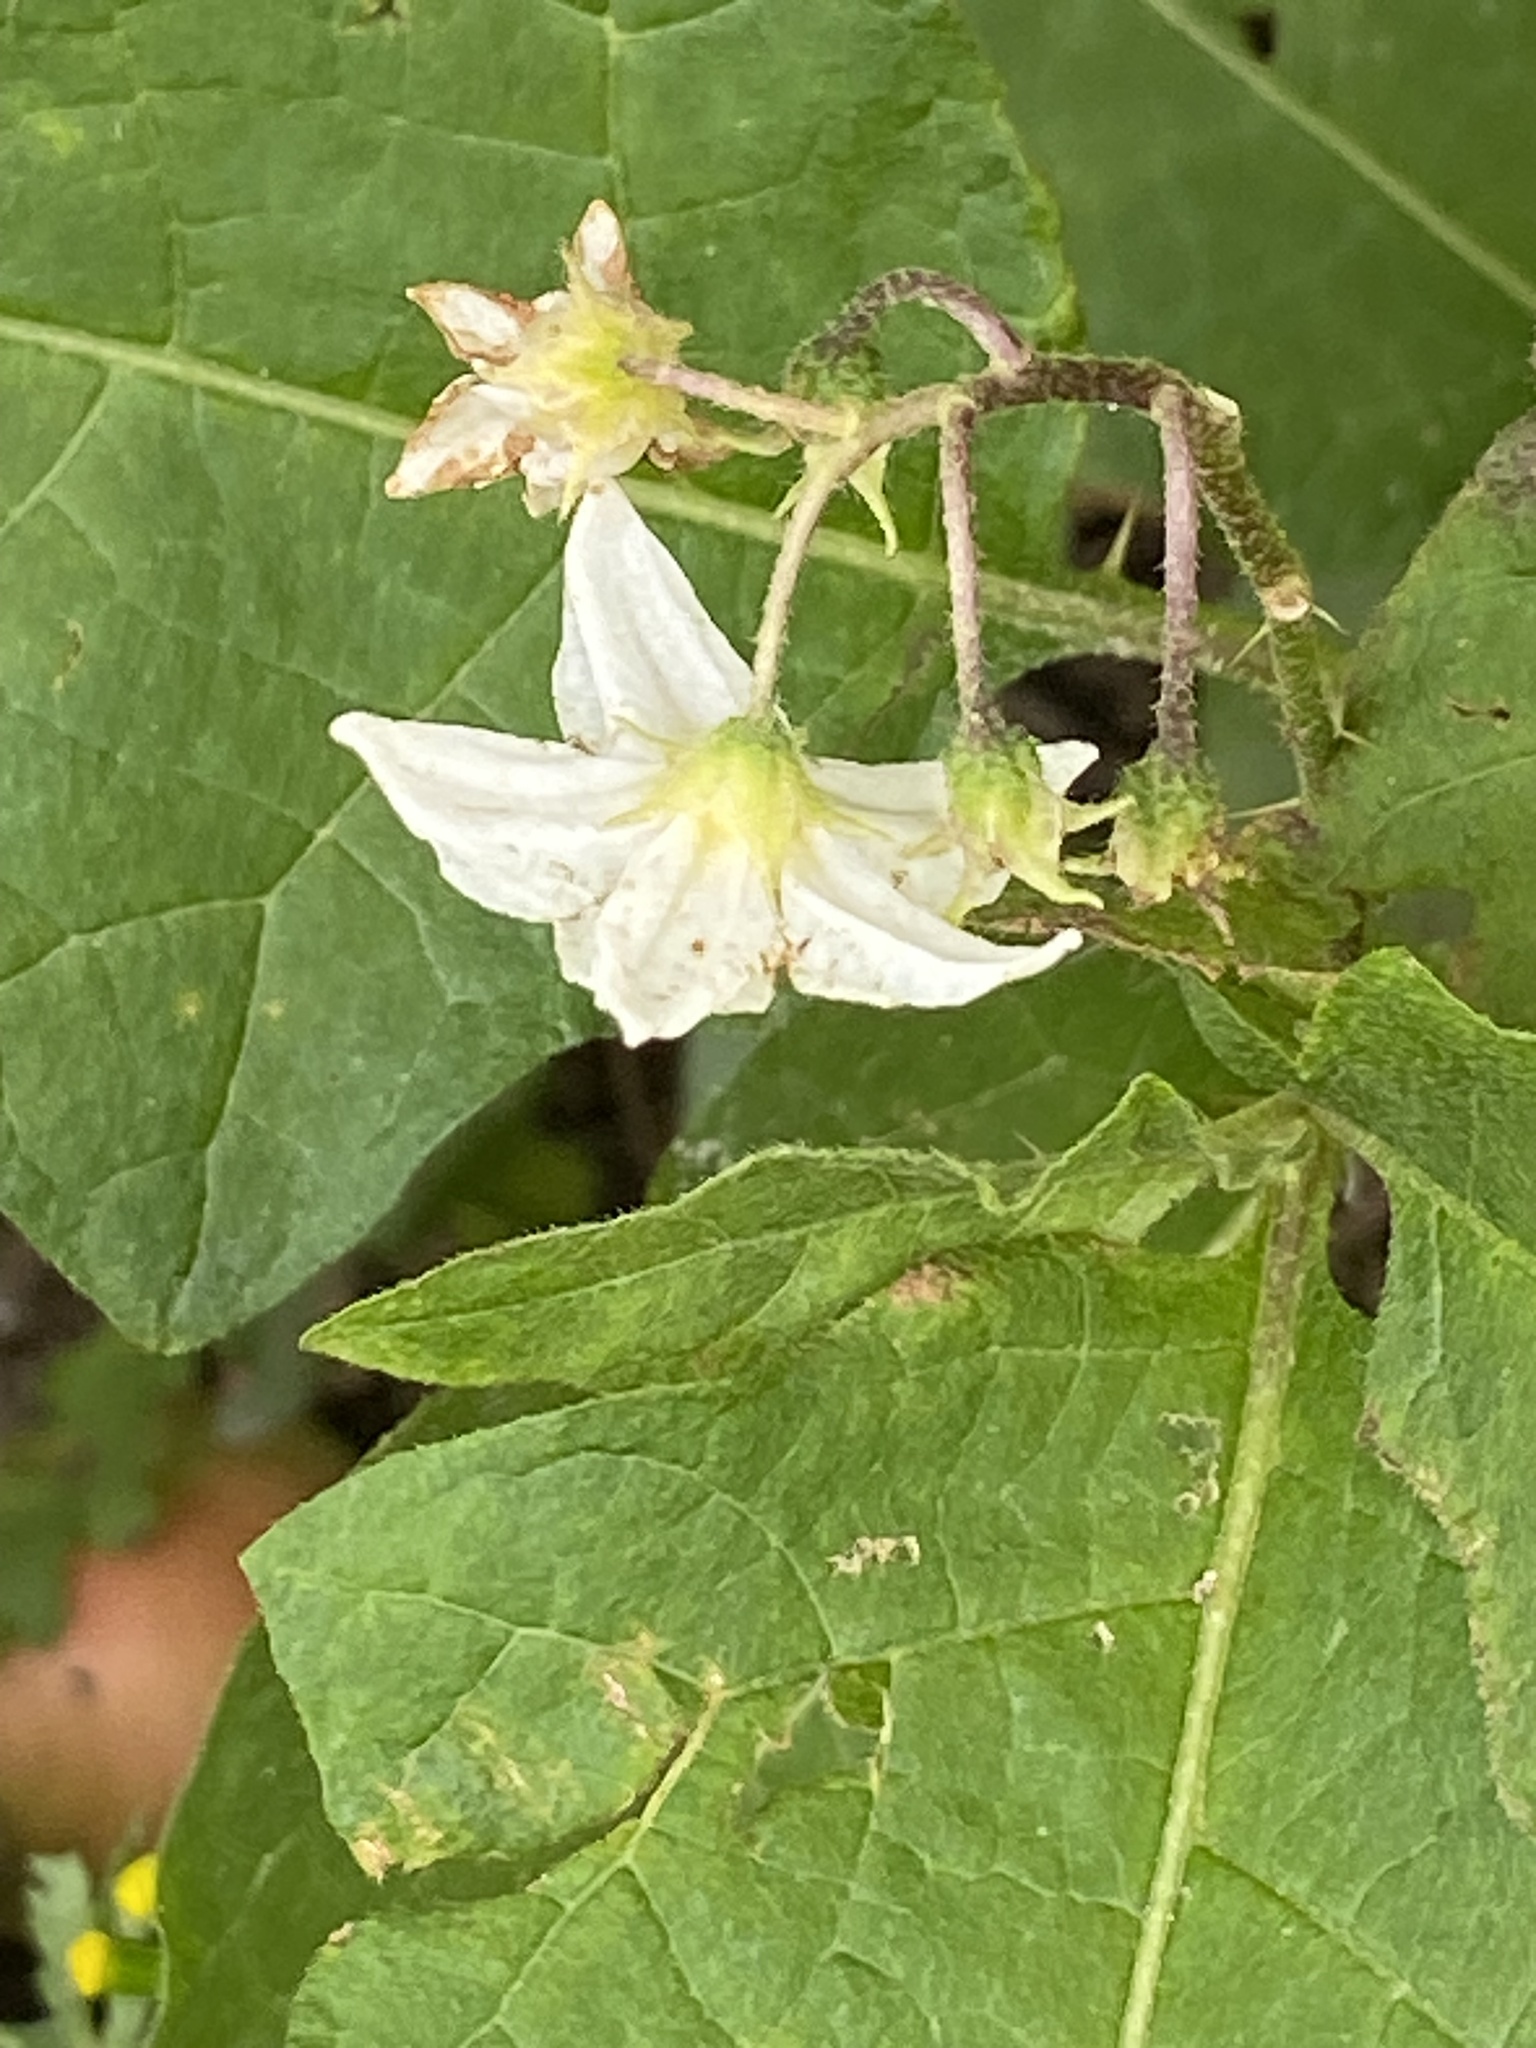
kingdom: Plantae
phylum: Tracheophyta
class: Magnoliopsida
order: Solanales
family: Solanaceae
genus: Solanum
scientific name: Solanum carolinense
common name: Horse-nettle
